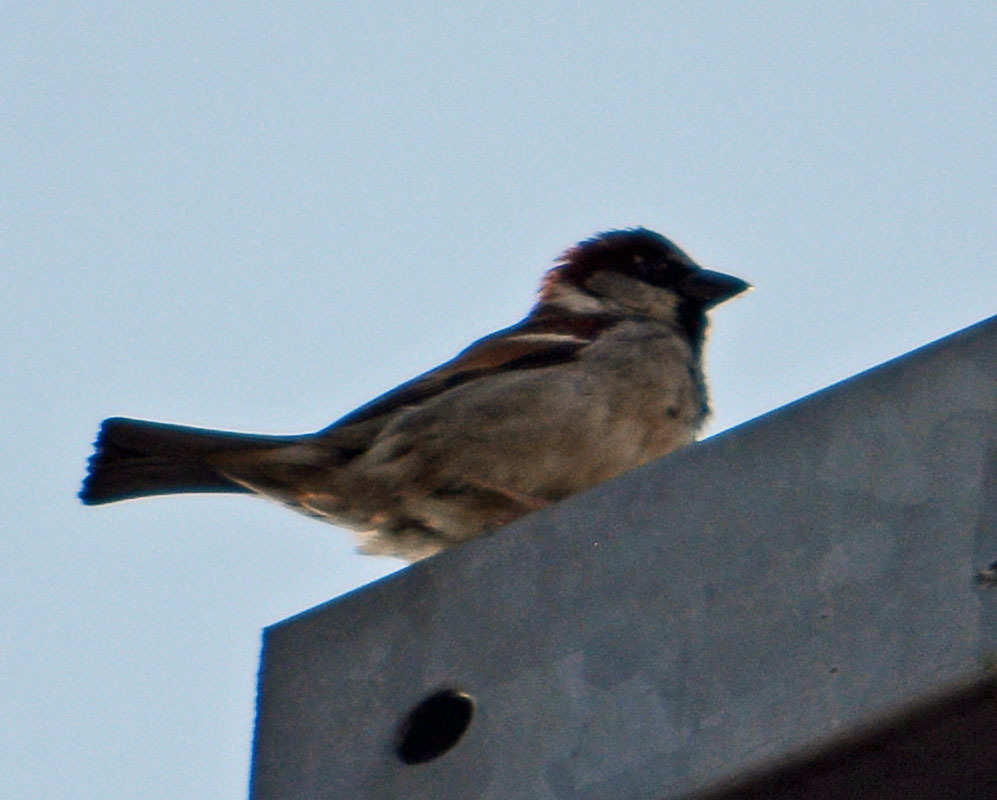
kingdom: Animalia
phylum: Chordata
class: Aves
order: Passeriformes
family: Passeridae
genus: Passer
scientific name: Passer domesticus
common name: House sparrow
